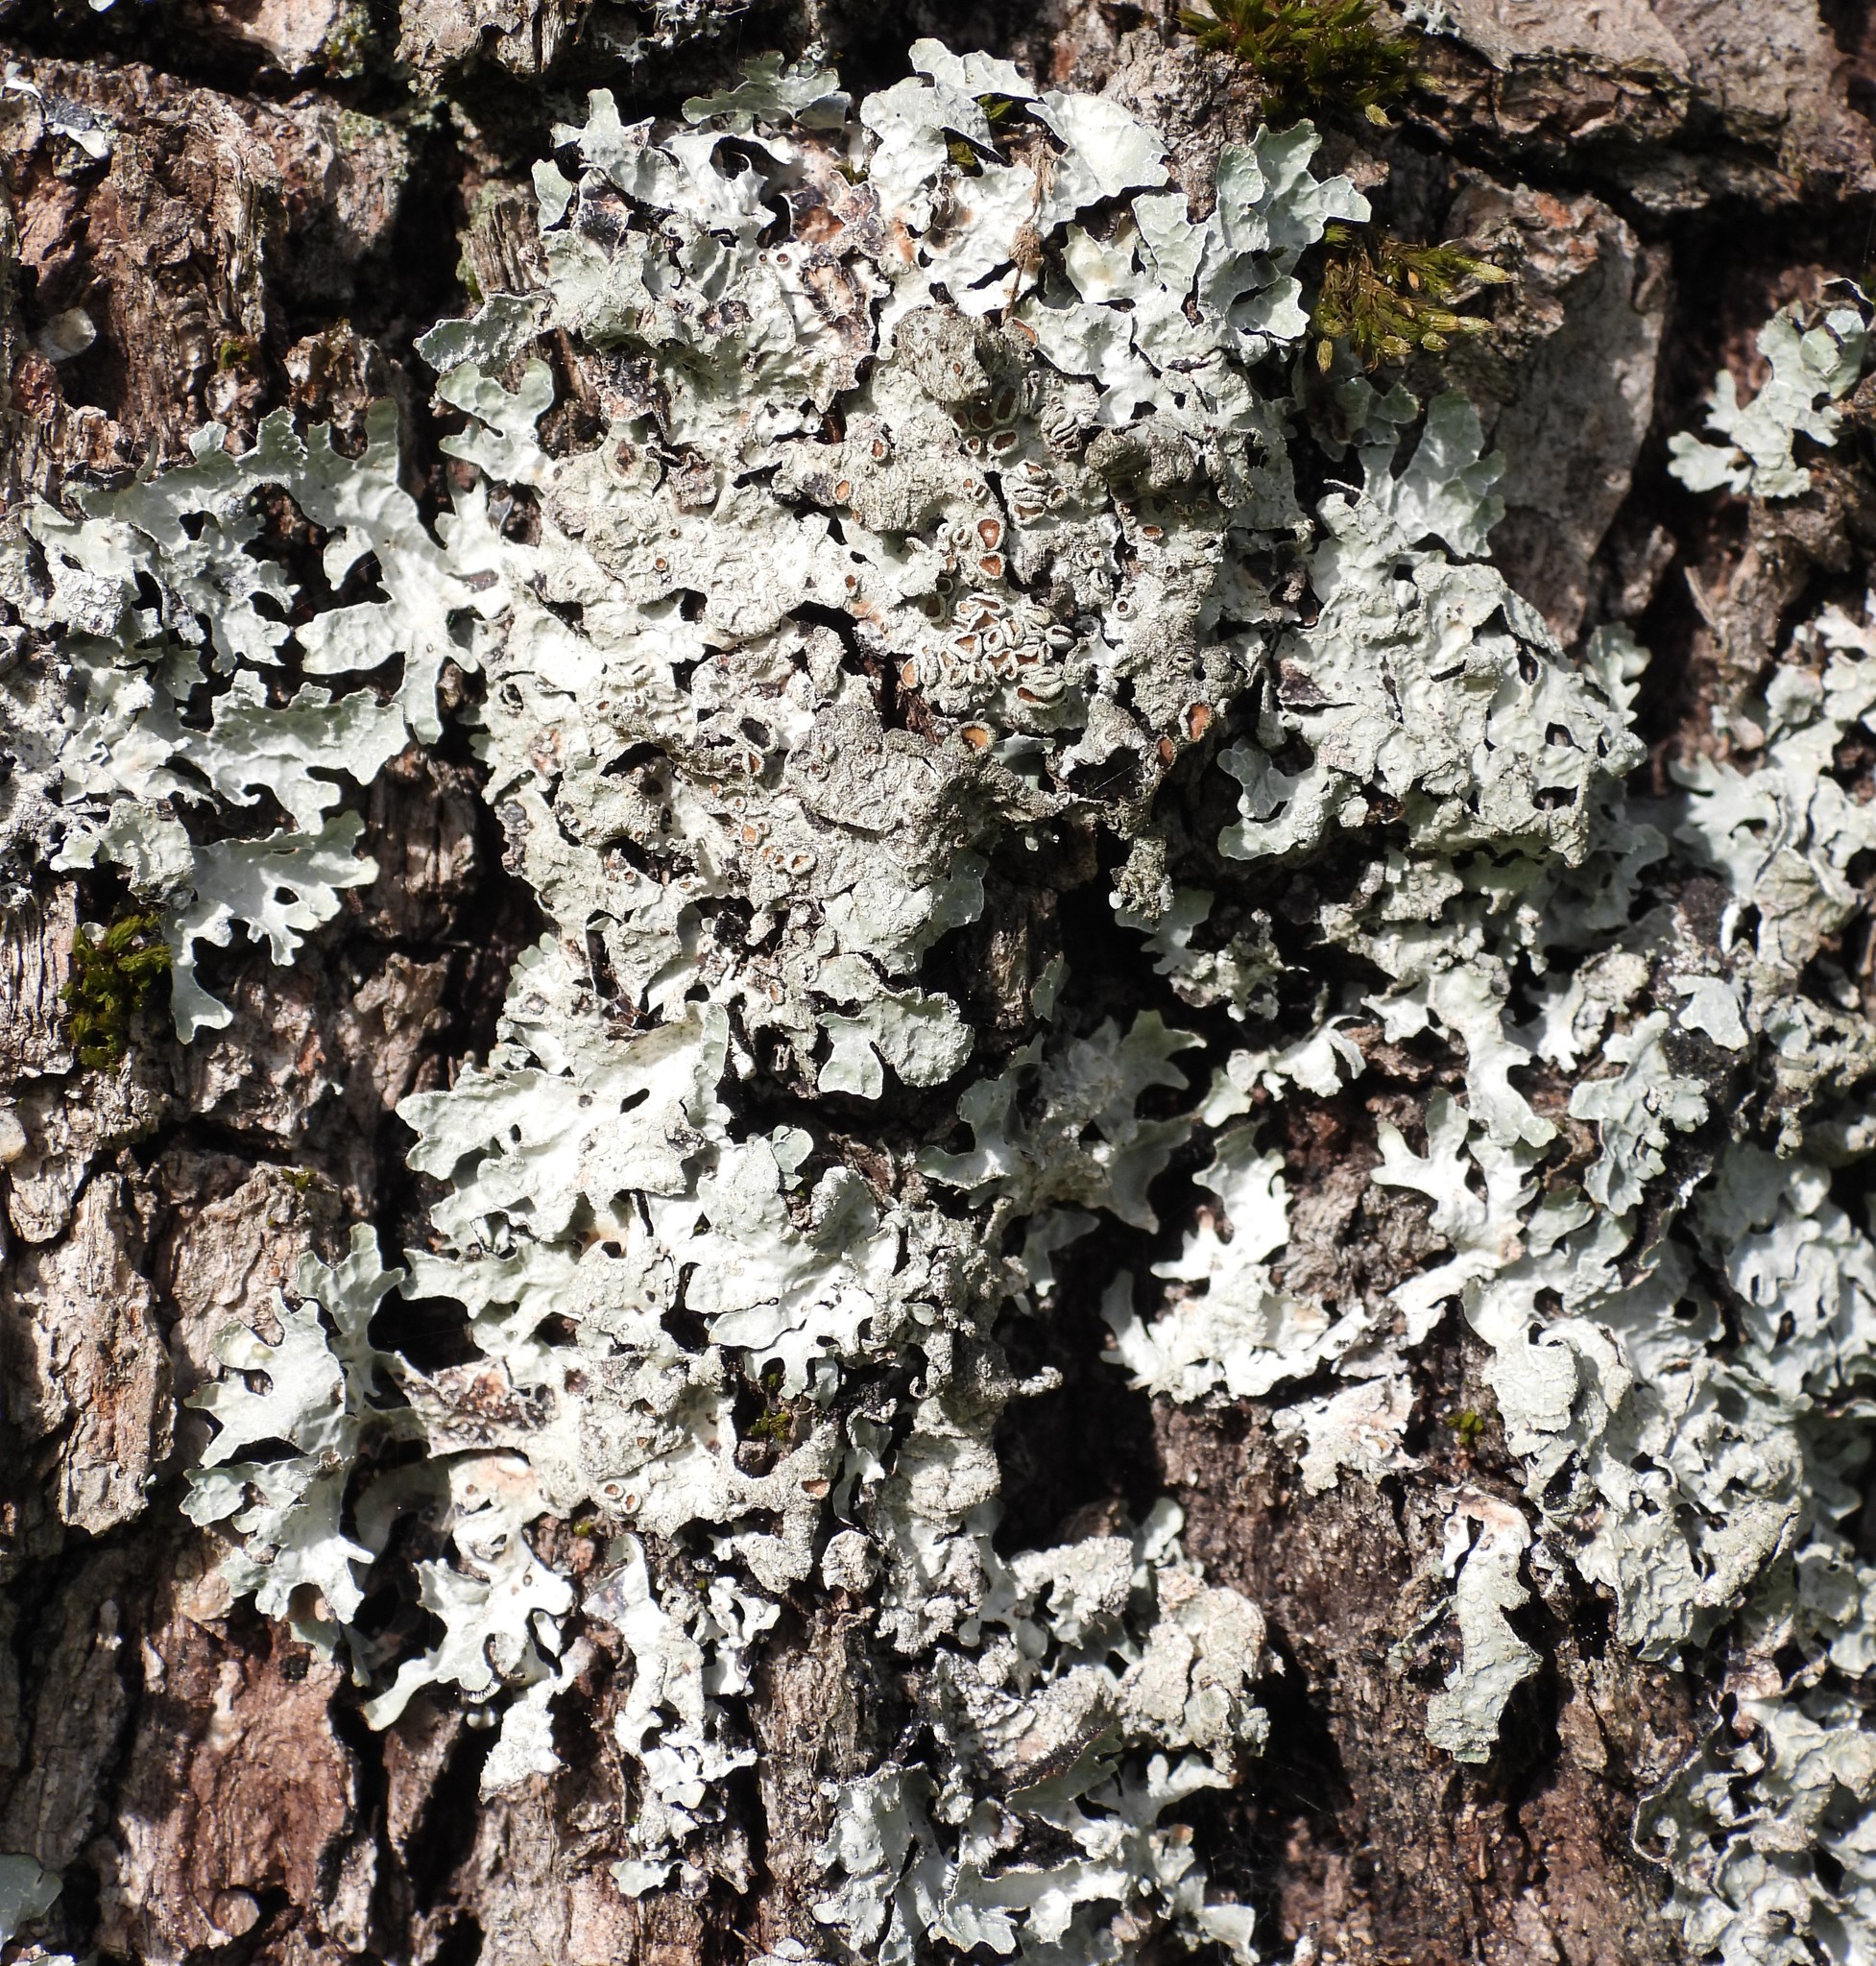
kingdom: Fungi
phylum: Ascomycota
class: Lecanoromycetes
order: Lecanorales
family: Parmeliaceae
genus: Parmelia
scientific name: Parmelia sulcata
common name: Netted shield lichen
